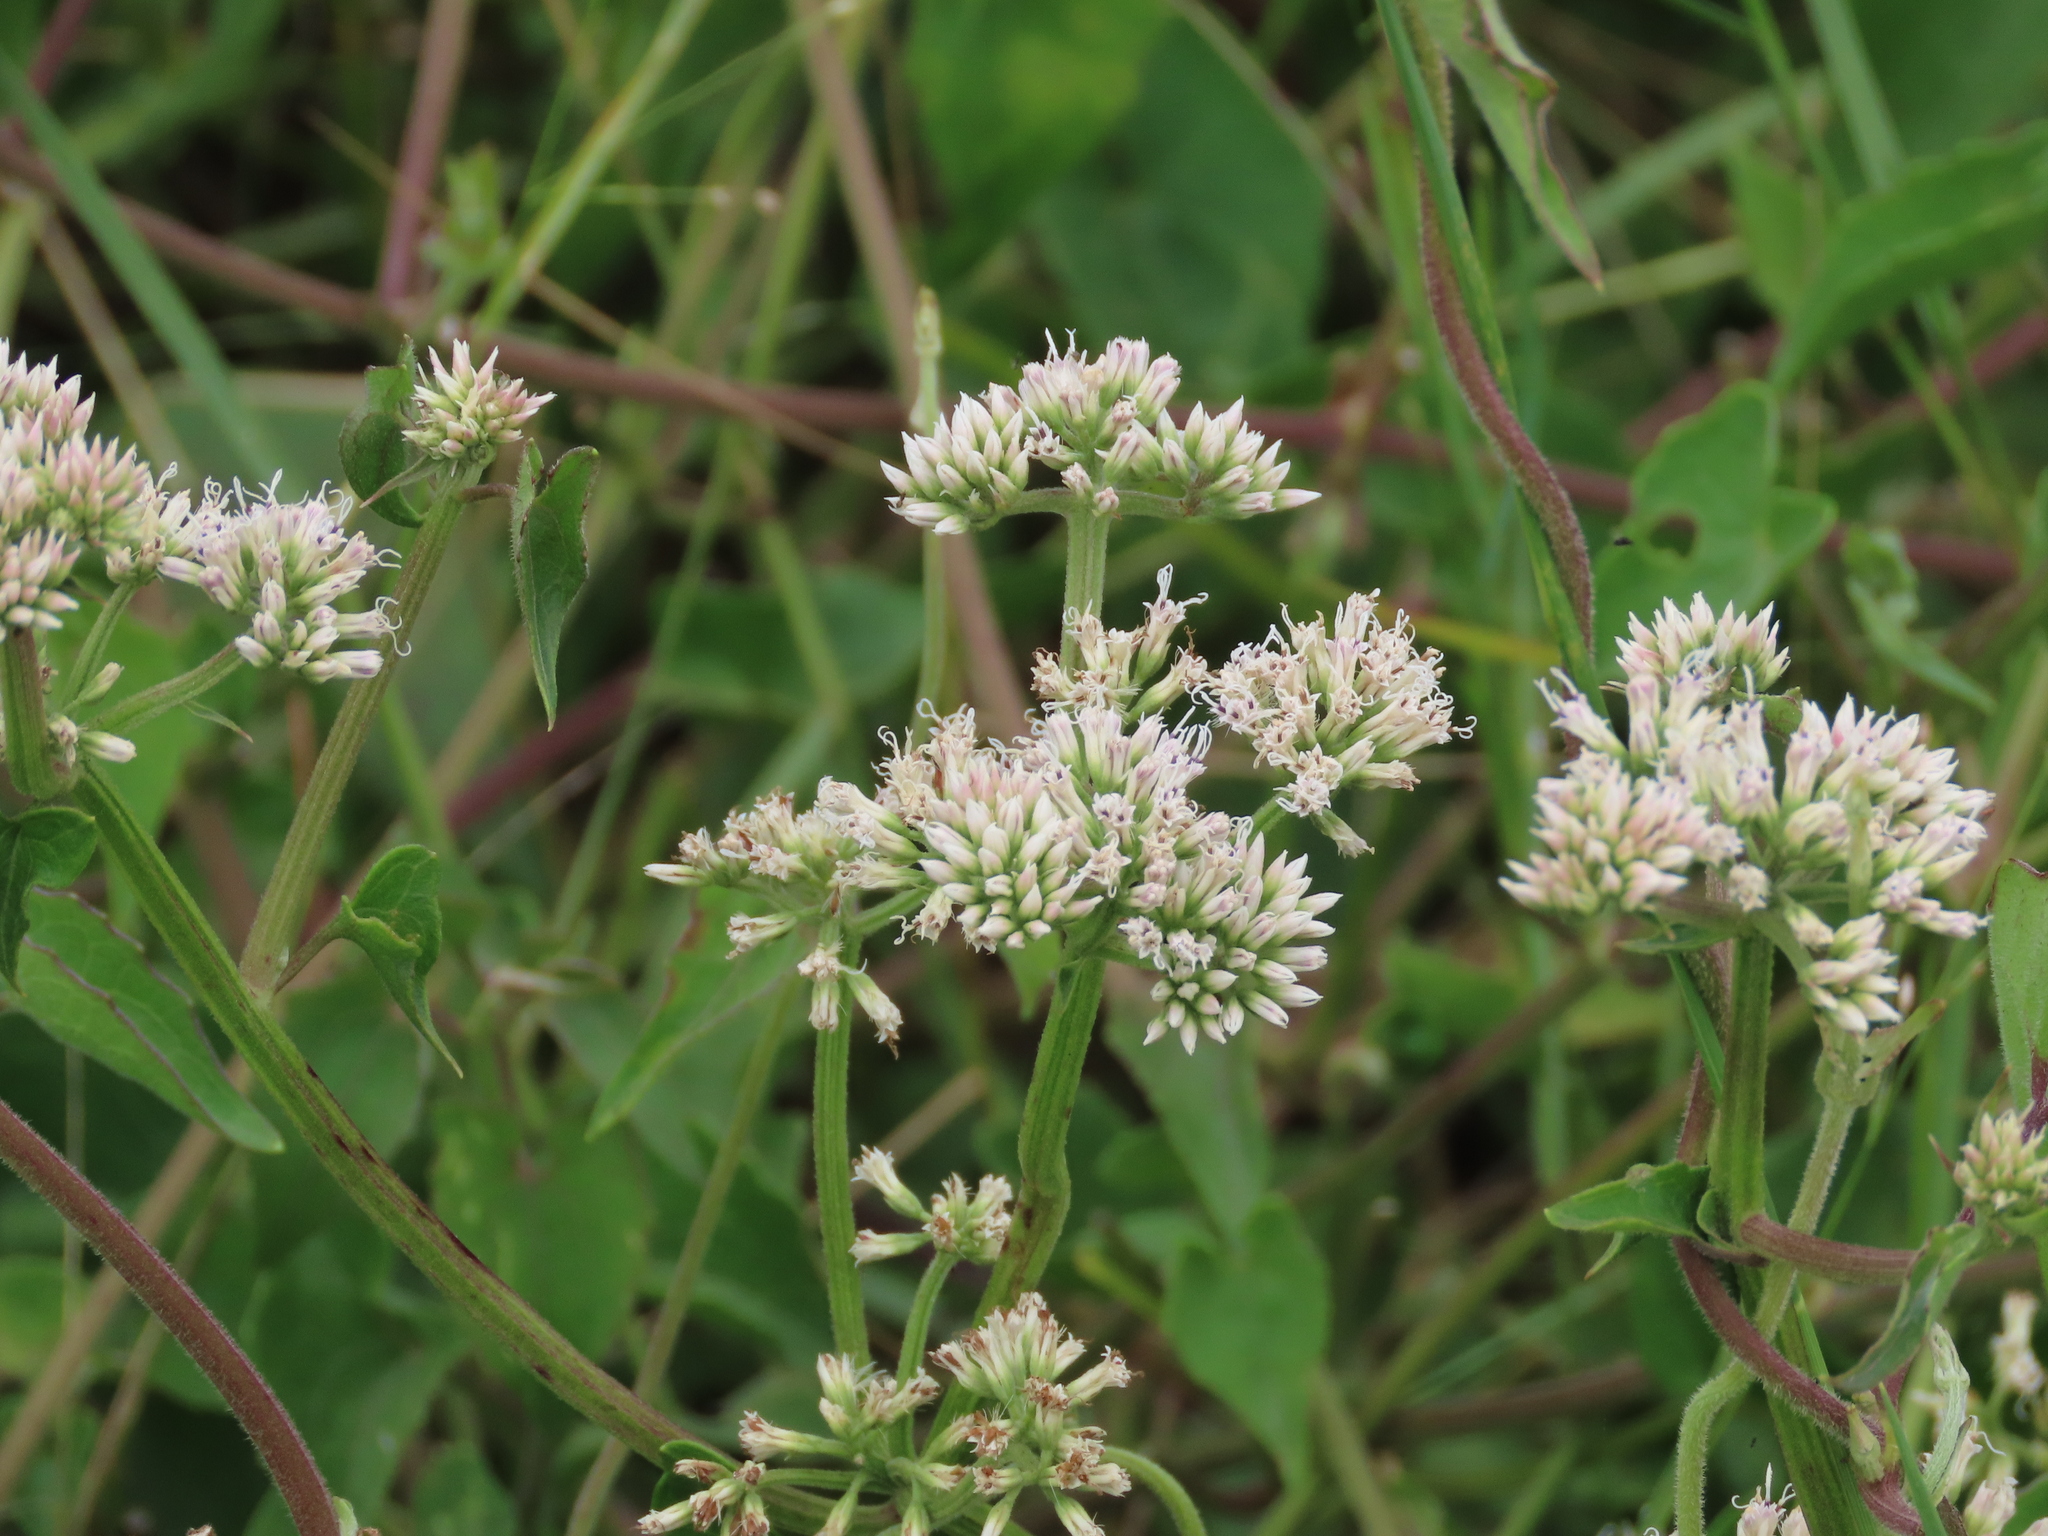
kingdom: Plantae
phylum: Tracheophyta
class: Magnoliopsida
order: Asterales
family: Asteraceae
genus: Mikania
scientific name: Mikania scandens
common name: Climbing hempvine
